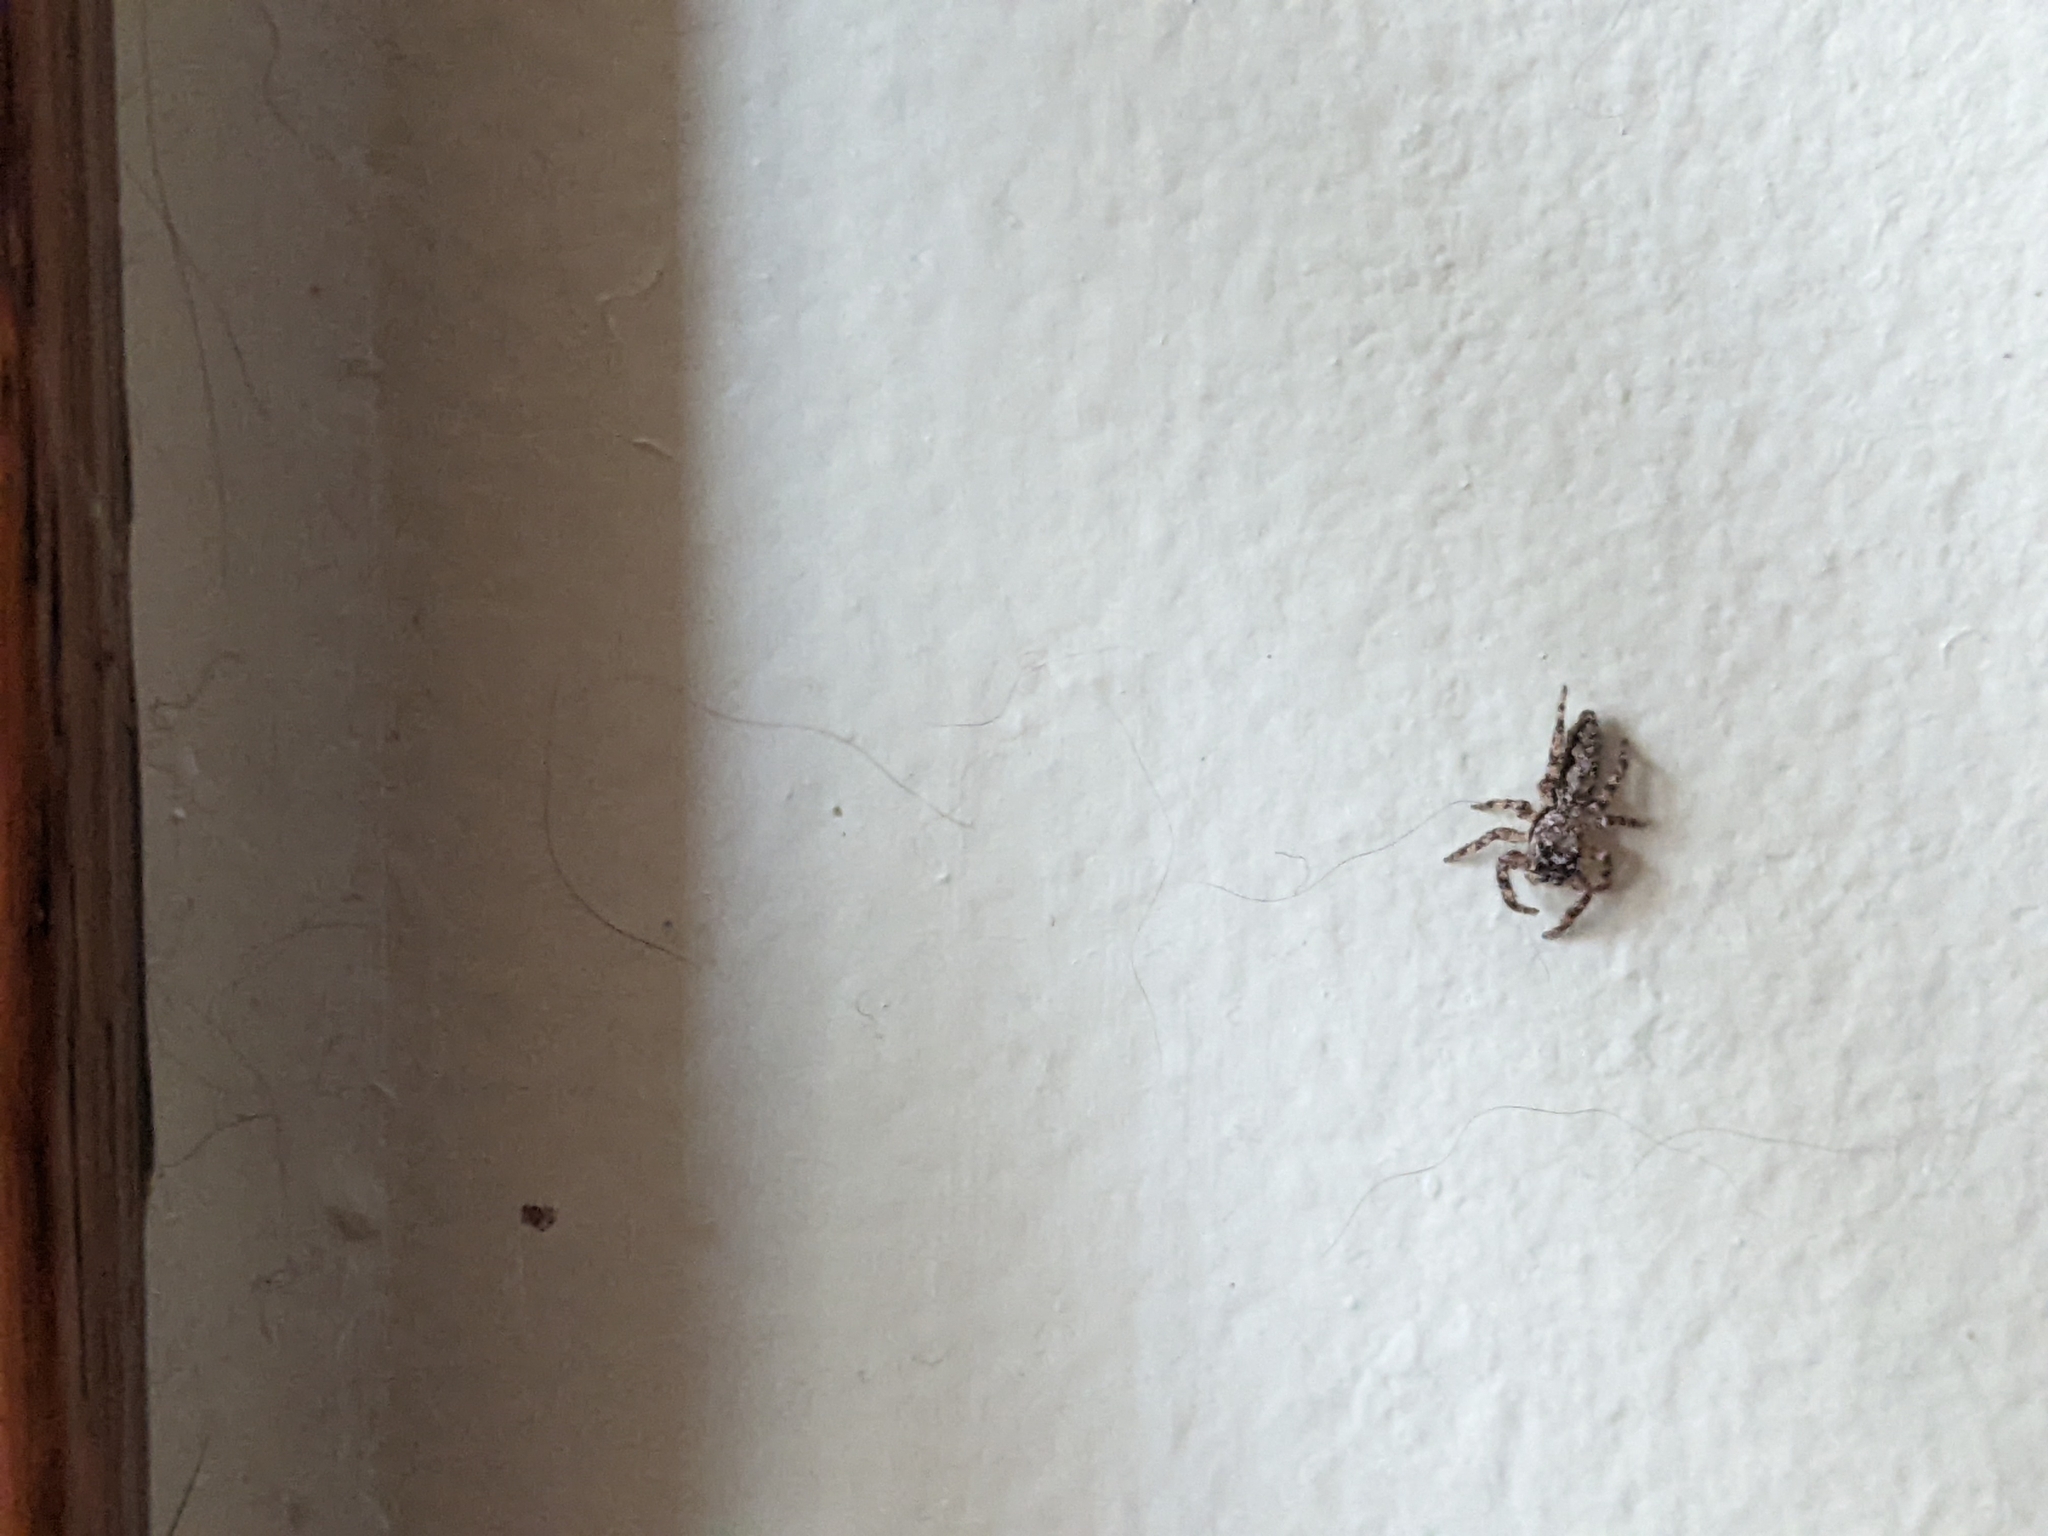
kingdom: Animalia
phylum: Arthropoda
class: Arachnida
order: Araneae
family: Salticidae
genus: Platycryptus
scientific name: Platycryptus undatus
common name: Tan jumping spider
